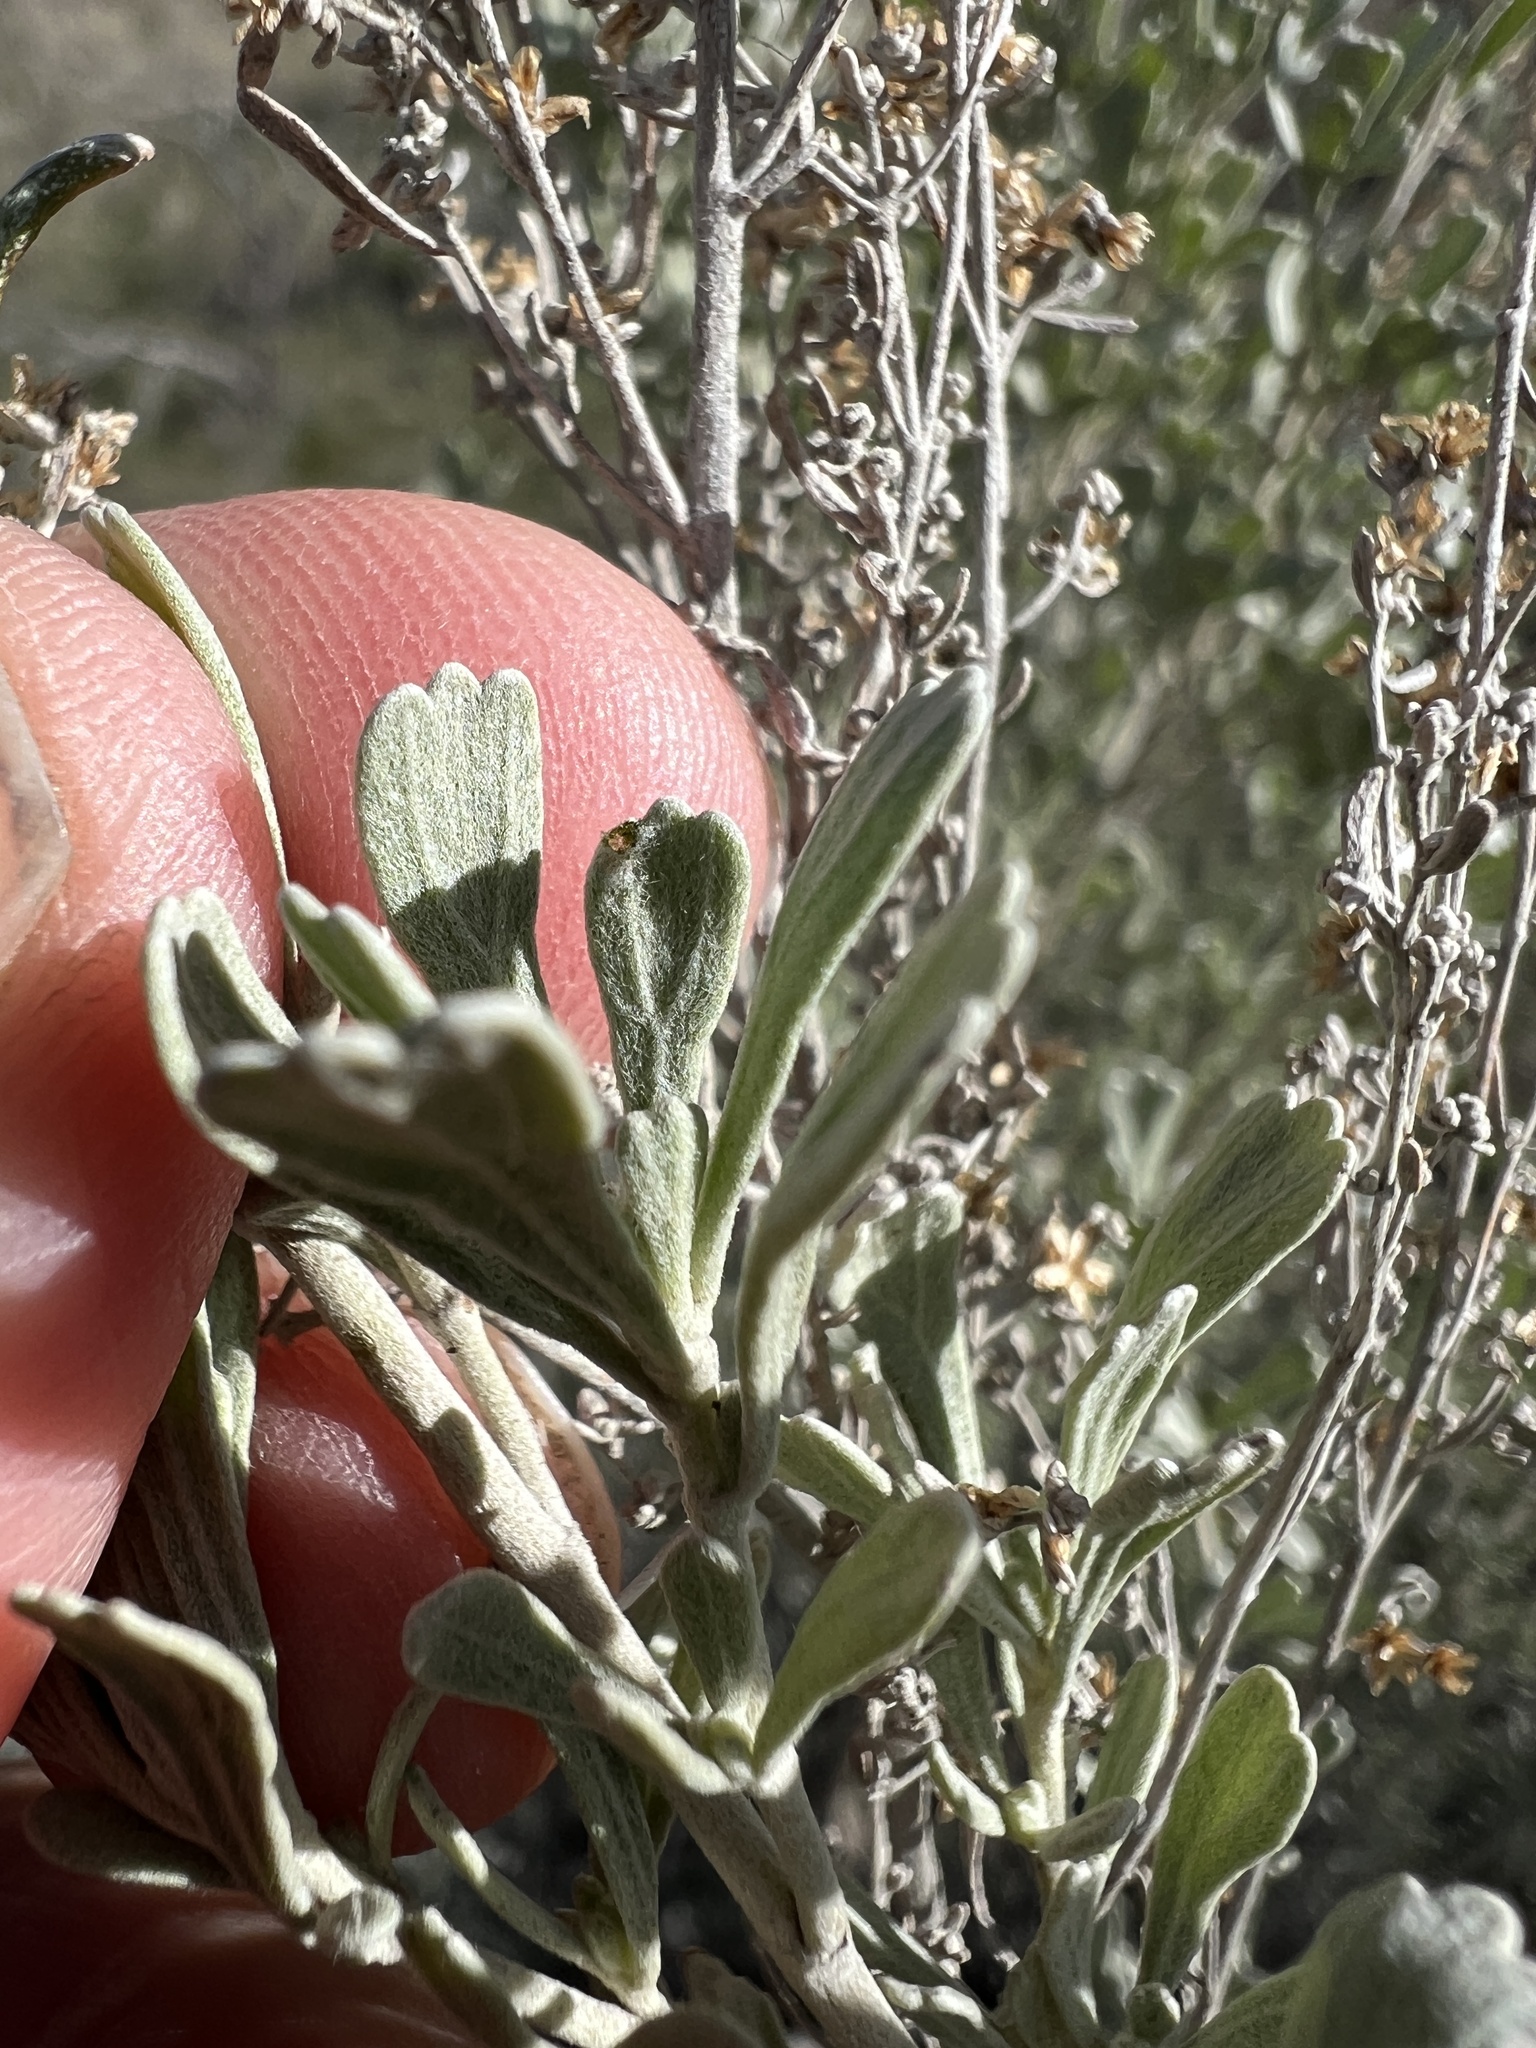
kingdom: Plantae
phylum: Tracheophyta
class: Magnoliopsida
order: Asterales
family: Asteraceae
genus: Artemisia
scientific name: Artemisia tridentata
